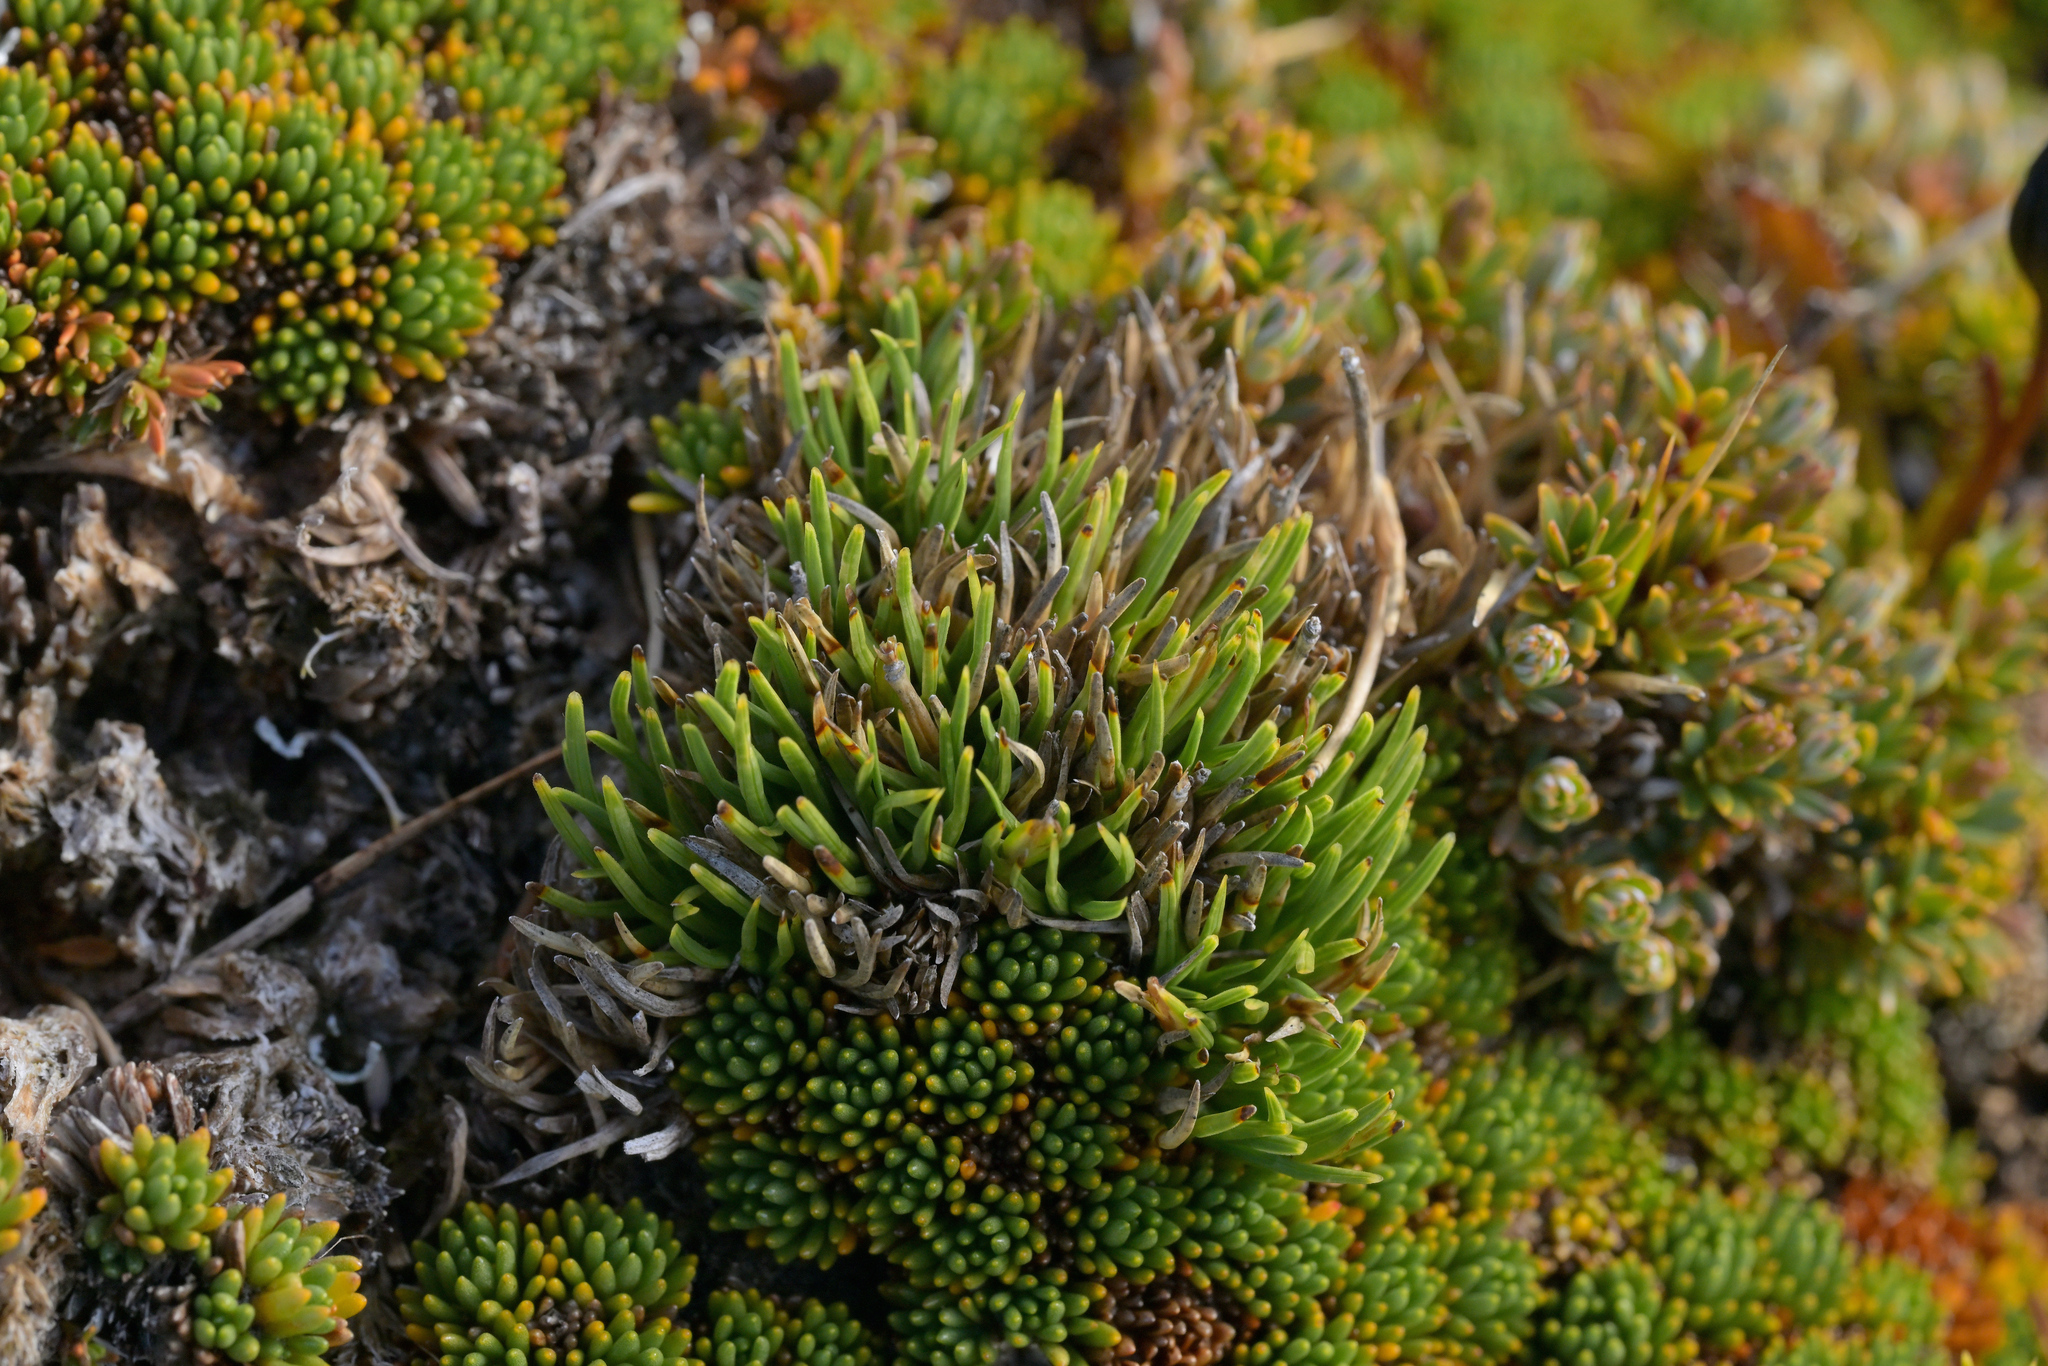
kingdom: Plantae
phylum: Tracheophyta
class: Liliopsida
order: Poales
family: Cyperaceae
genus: Oreobolus
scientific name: Oreobolus pectinatus
